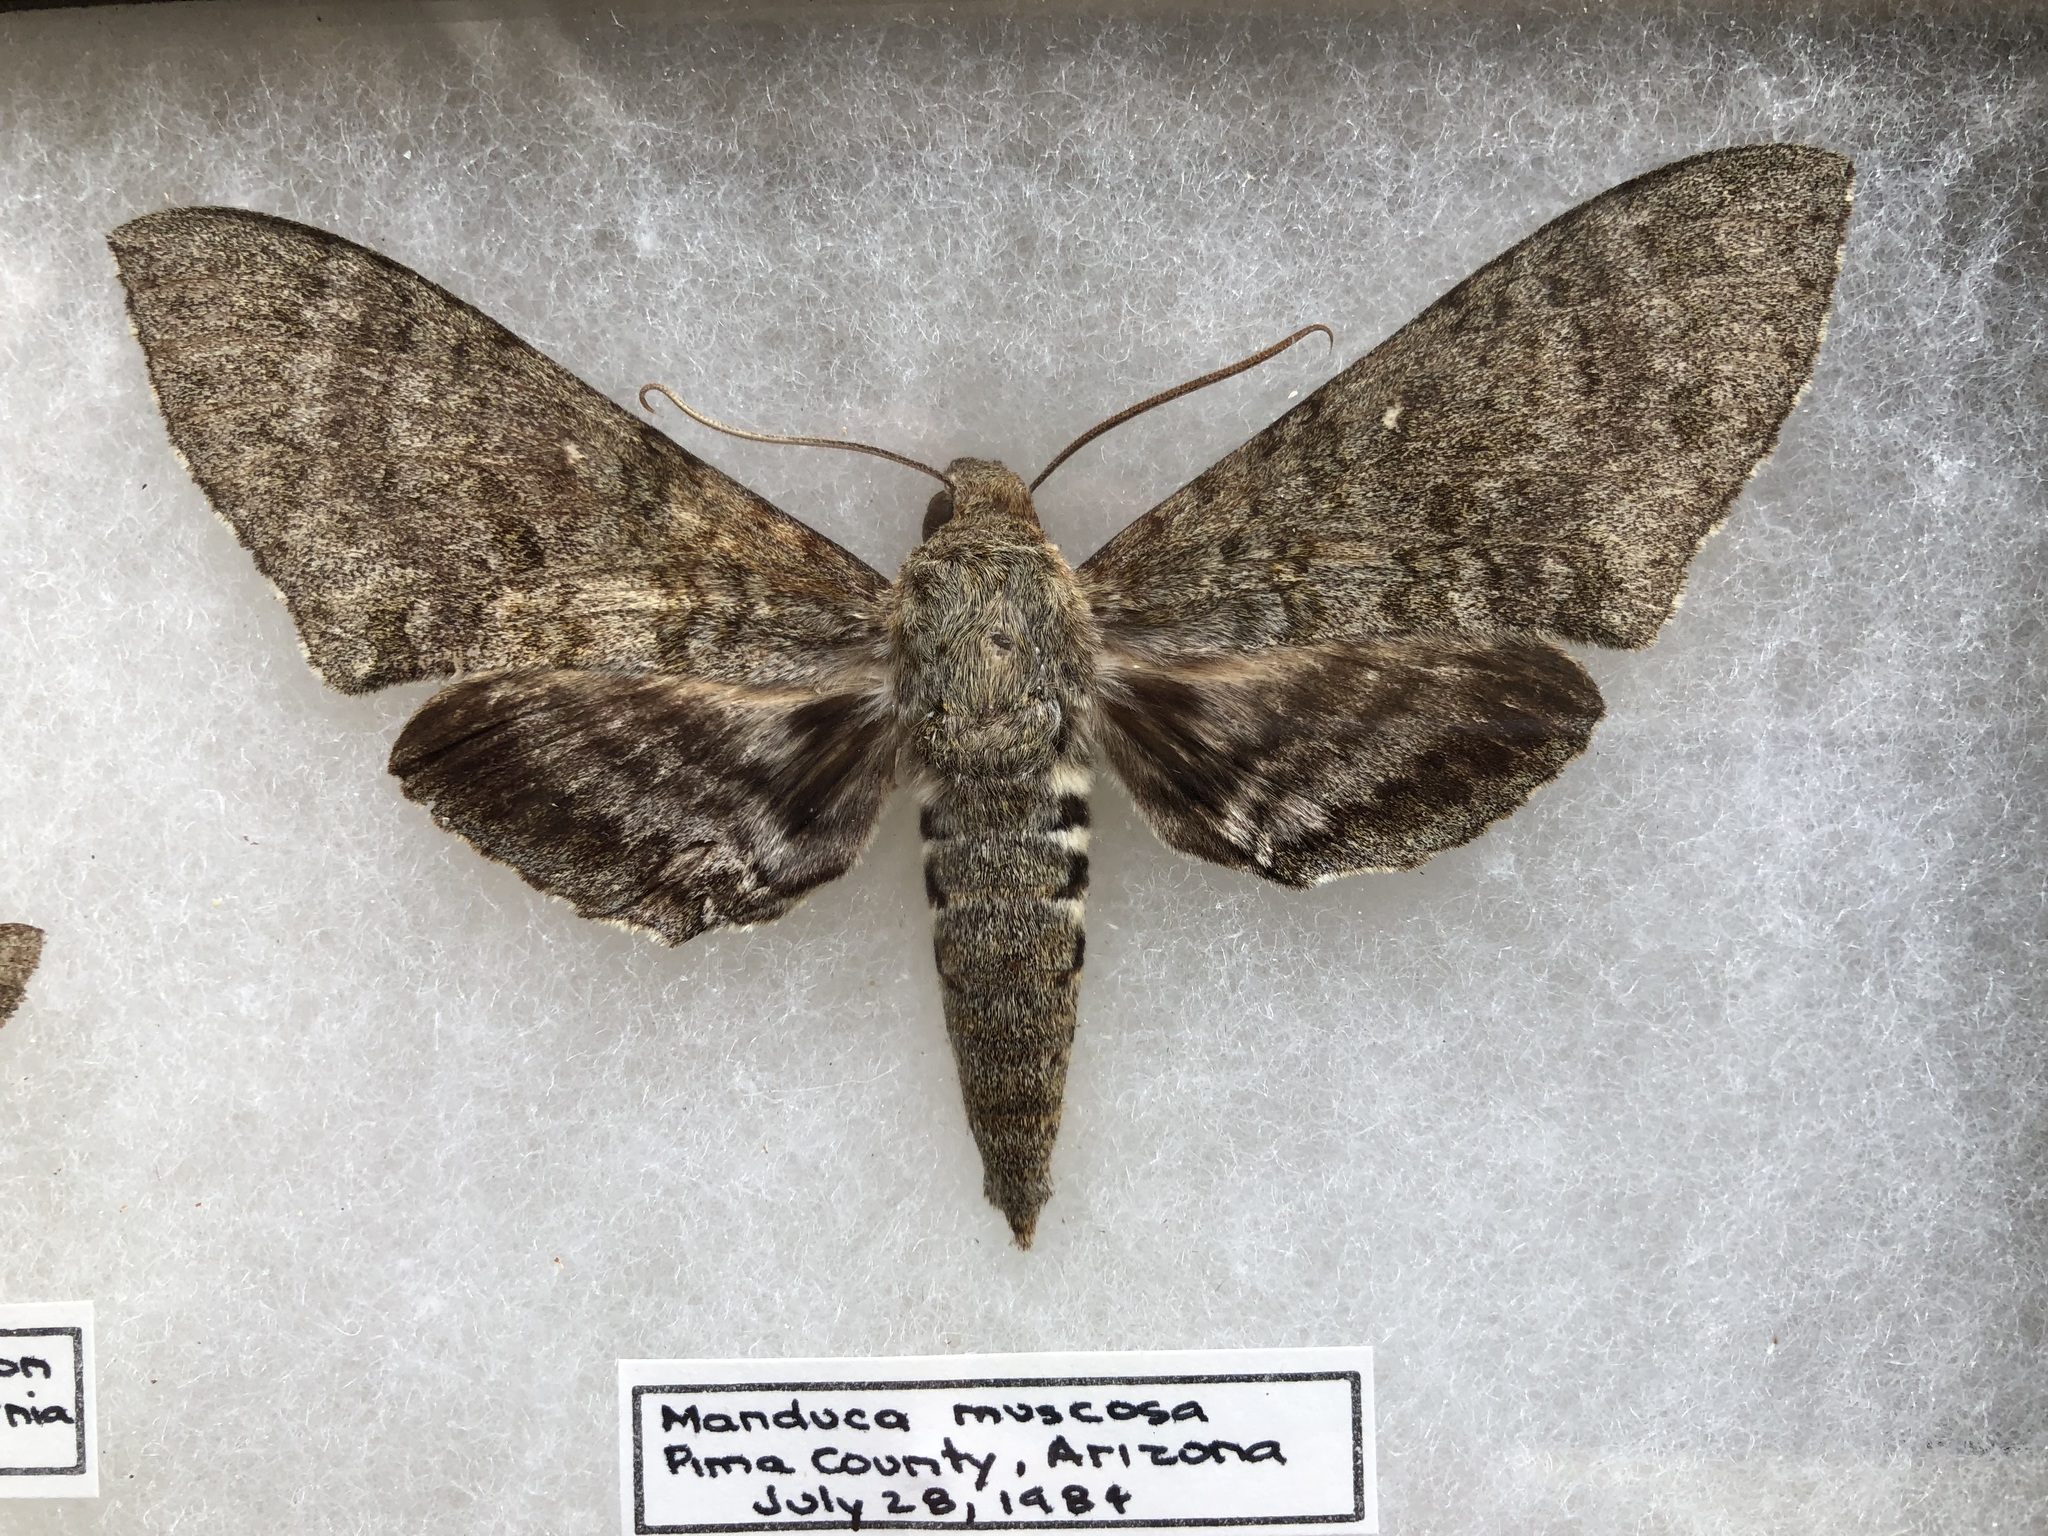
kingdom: Animalia
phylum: Arthropoda
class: Insecta
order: Lepidoptera
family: Sphingidae
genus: Manduca
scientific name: Manduca muscosa
